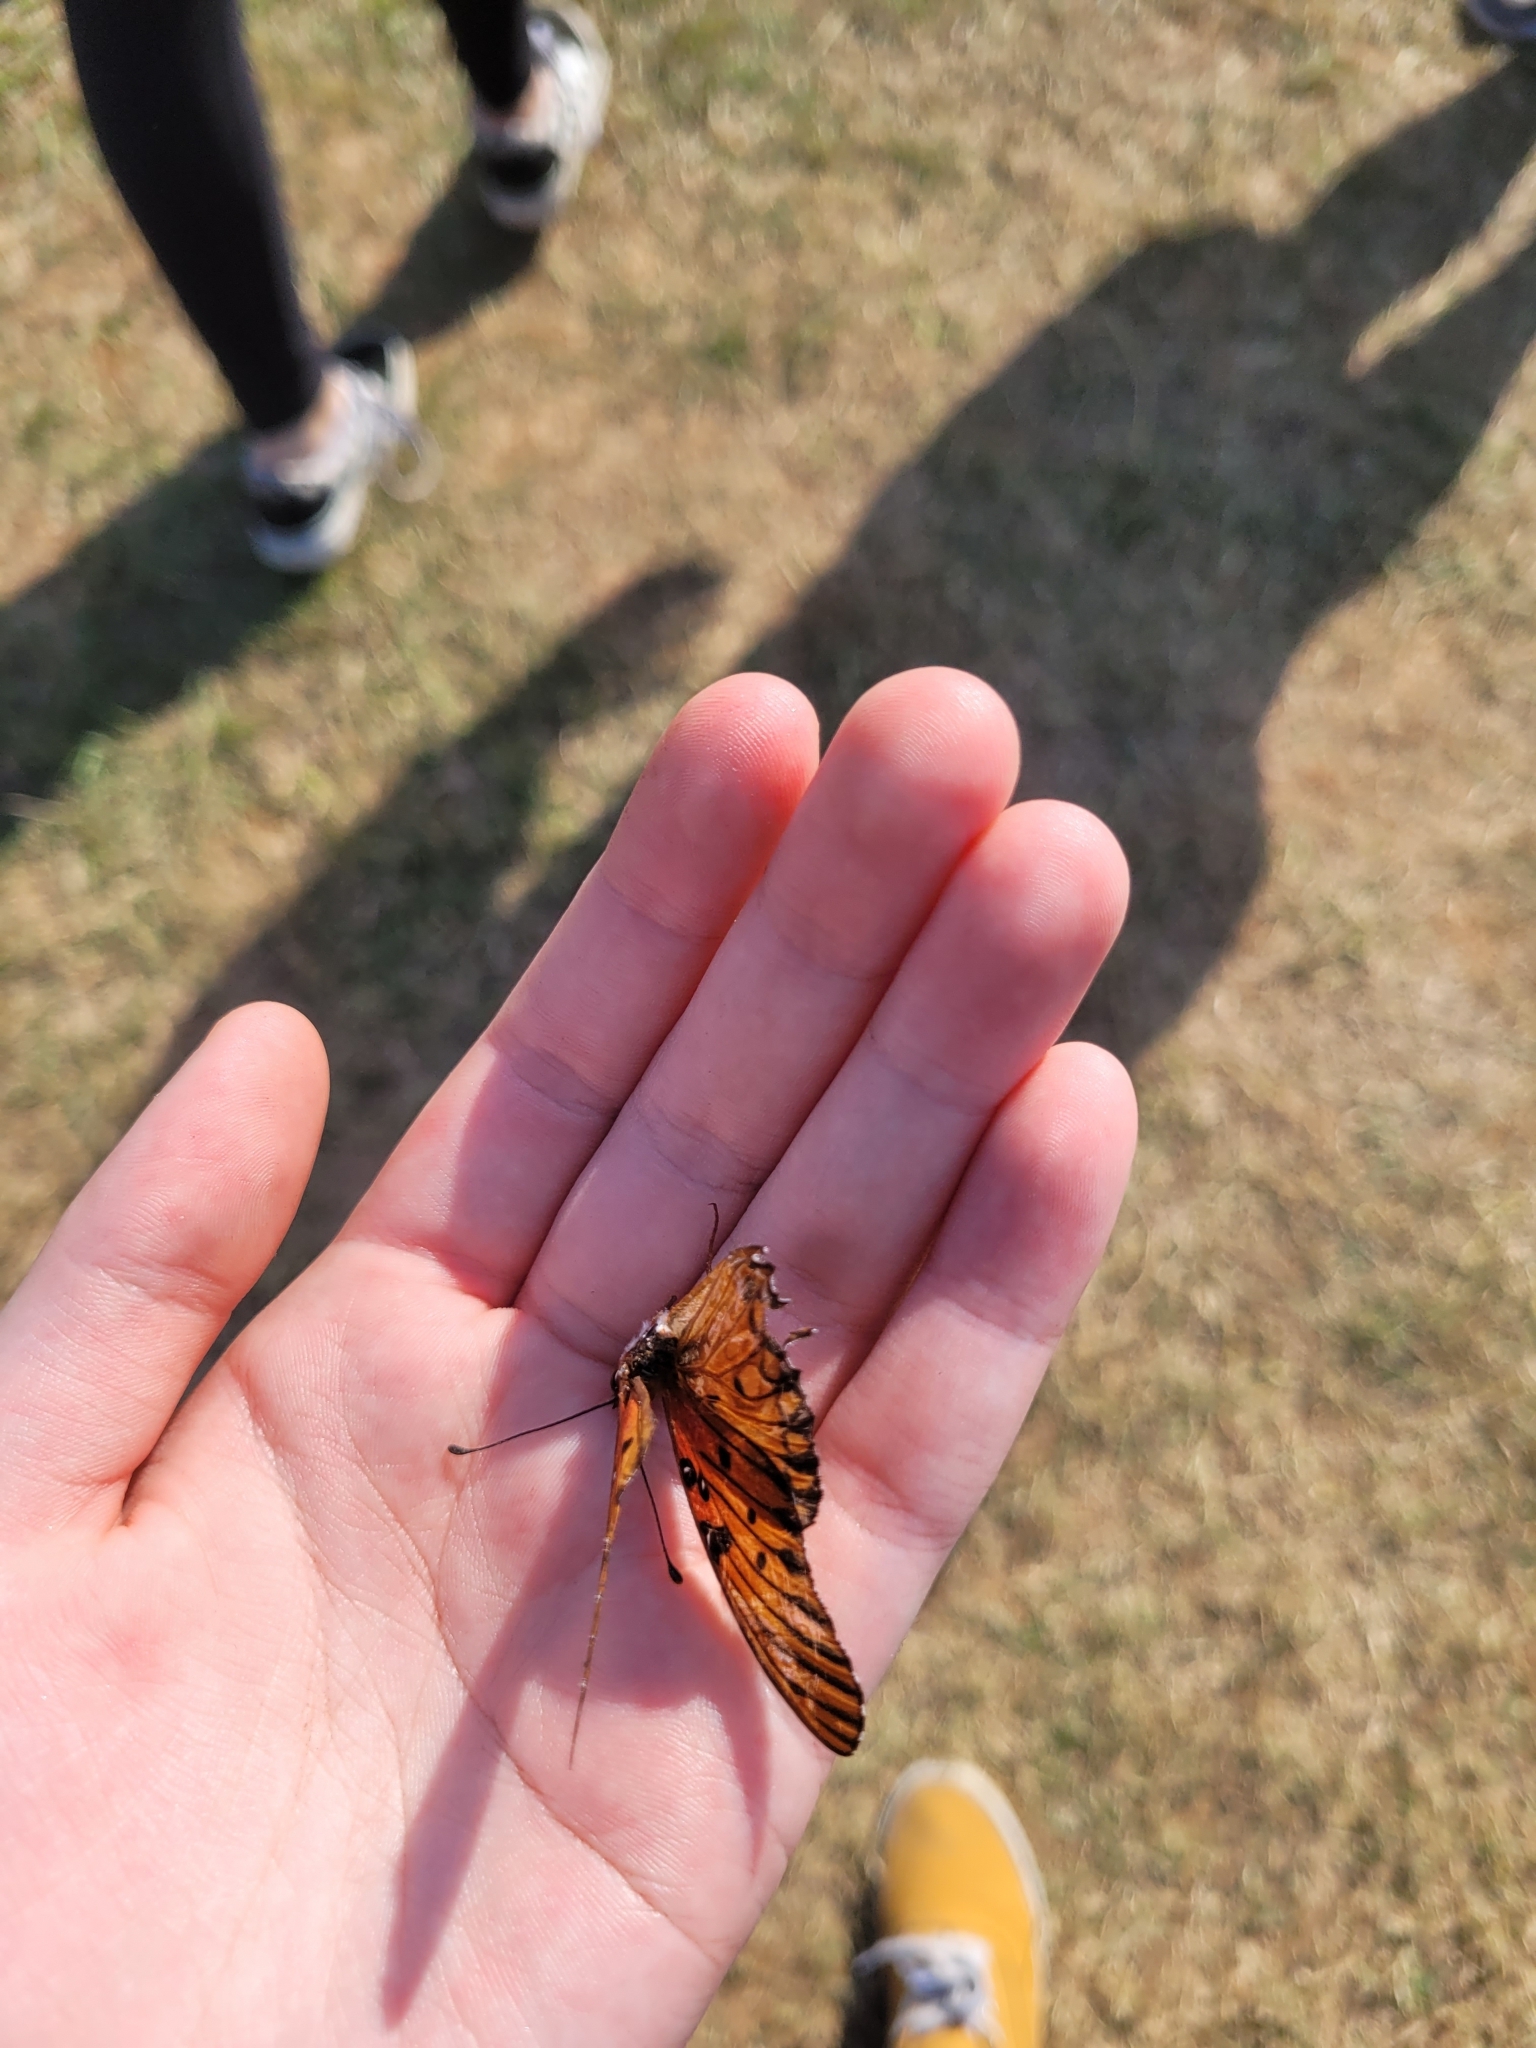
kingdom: Animalia
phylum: Arthropoda
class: Insecta
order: Lepidoptera
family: Nymphalidae
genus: Dione
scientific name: Dione vanillae
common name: Gulf fritillary
